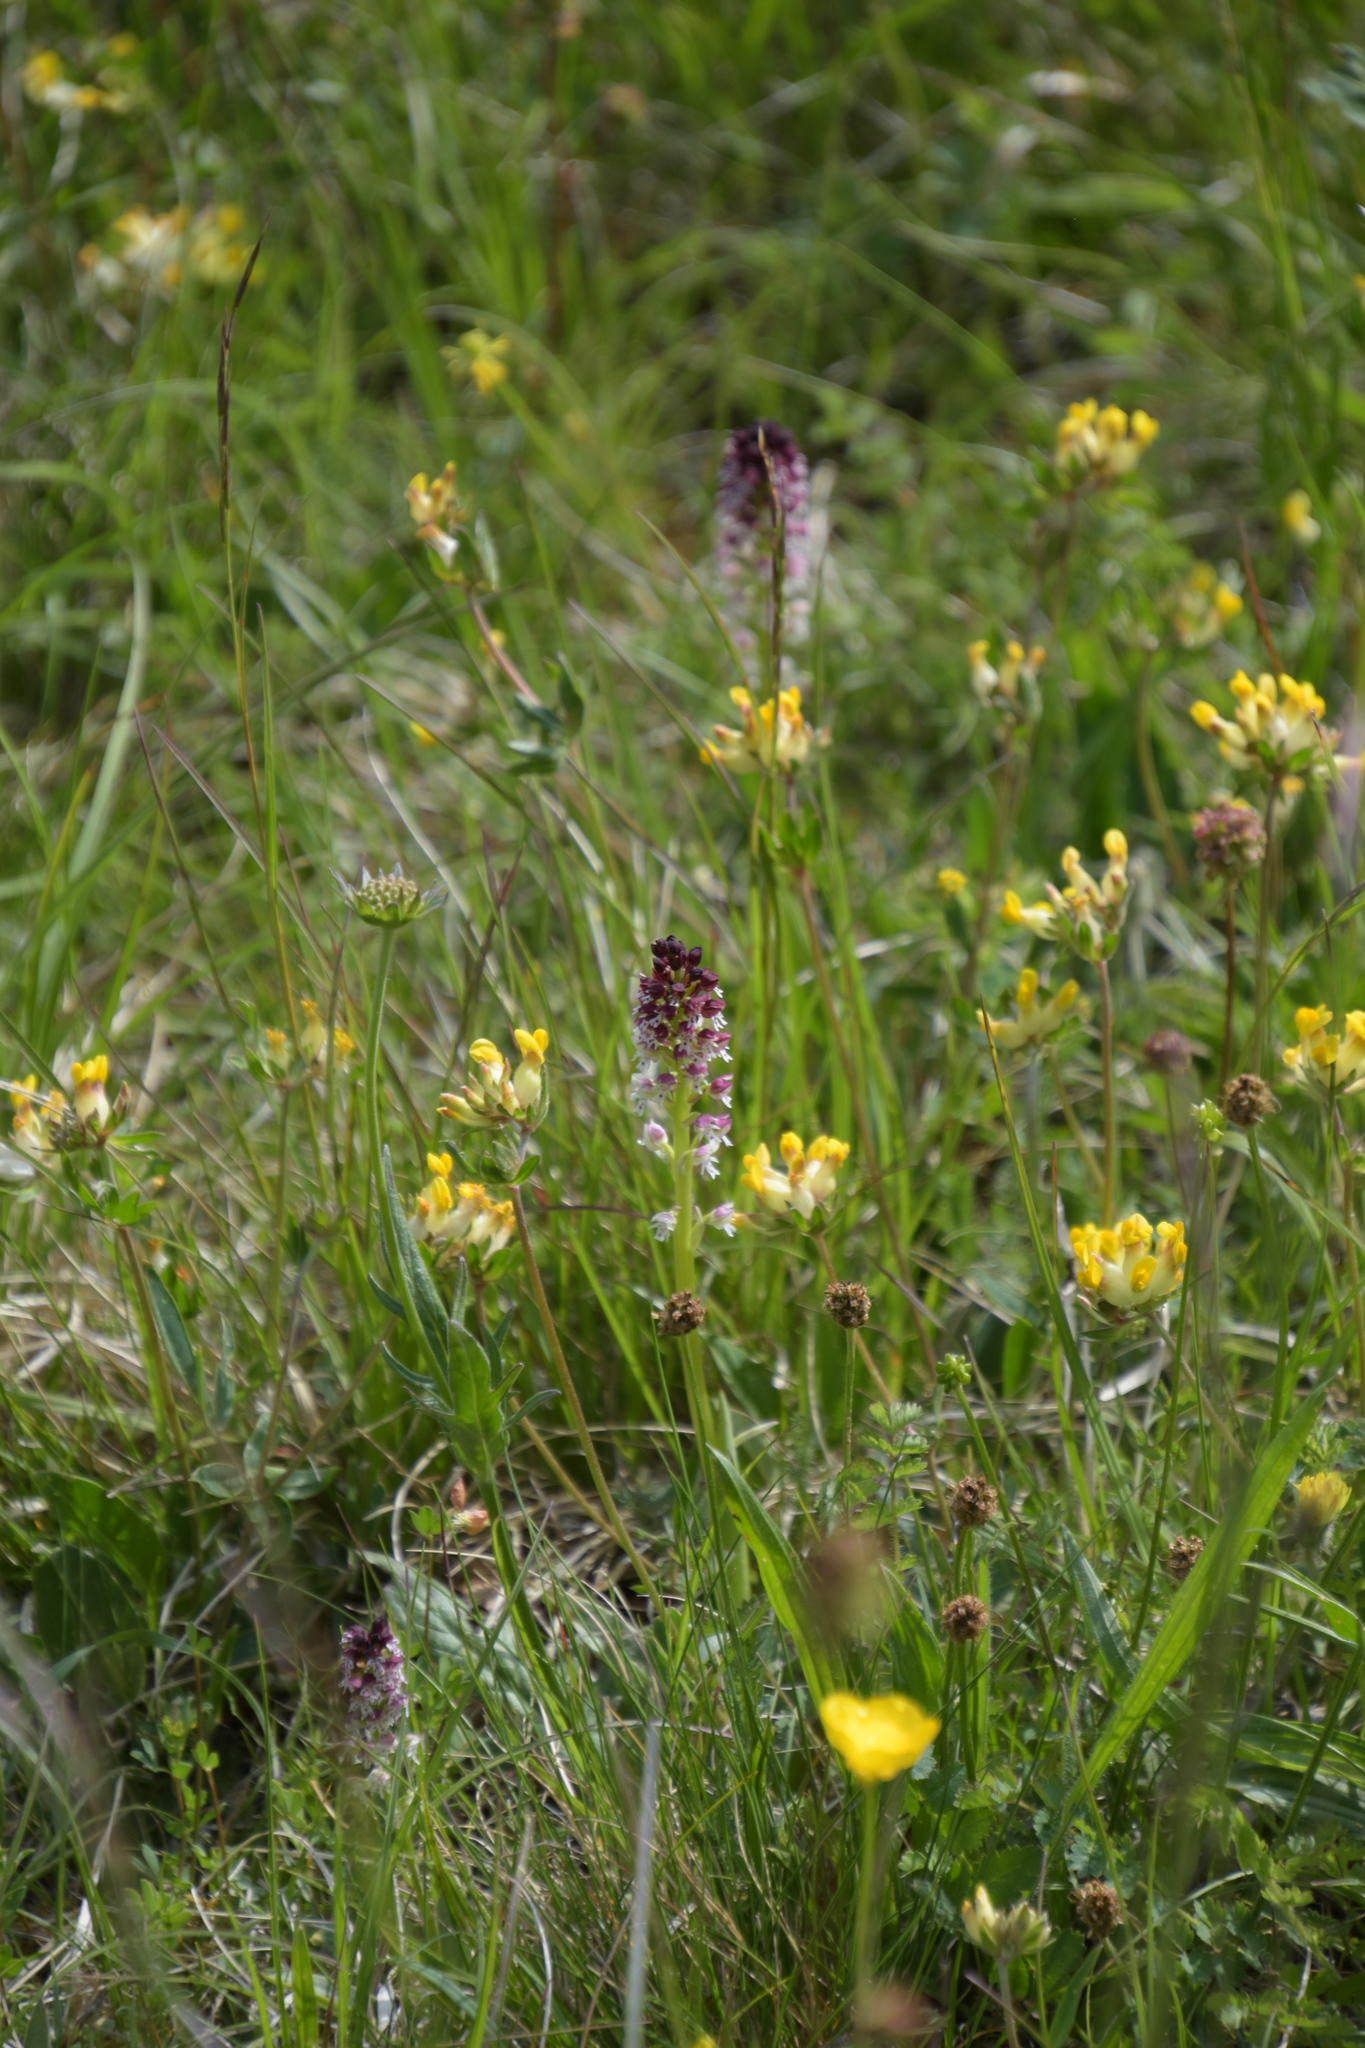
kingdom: Plantae
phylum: Tracheophyta
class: Liliopsida
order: Asparagales
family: Orchidaceae
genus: Neotinea
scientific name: Neotinea ustulata
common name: Burnt orchid
